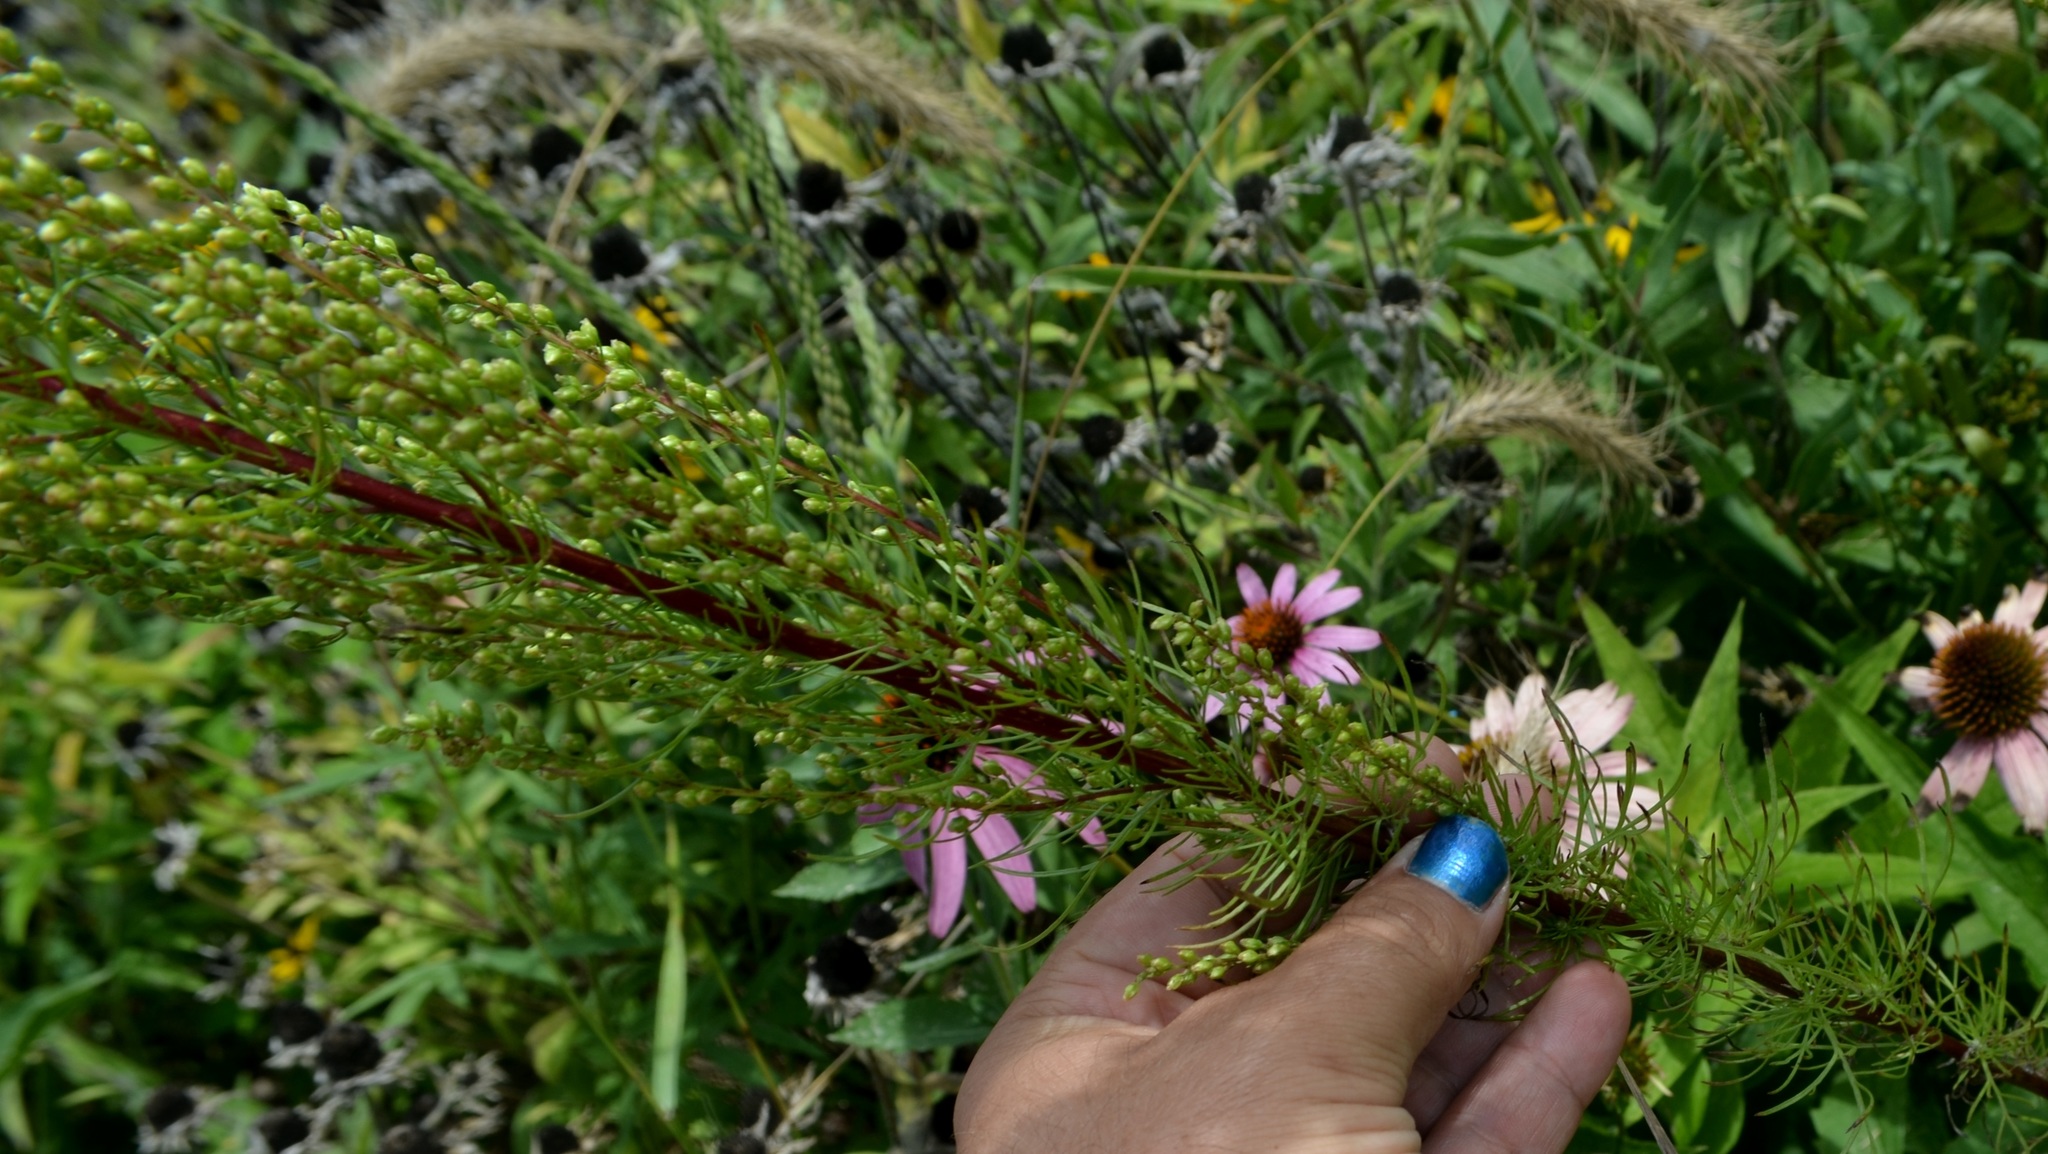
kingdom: Plantae
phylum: Tracheophyta
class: Magnoliopsida
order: Asterales
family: Asteraceae
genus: Artemisia
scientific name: Artemisia campestris
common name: Field wormwood
